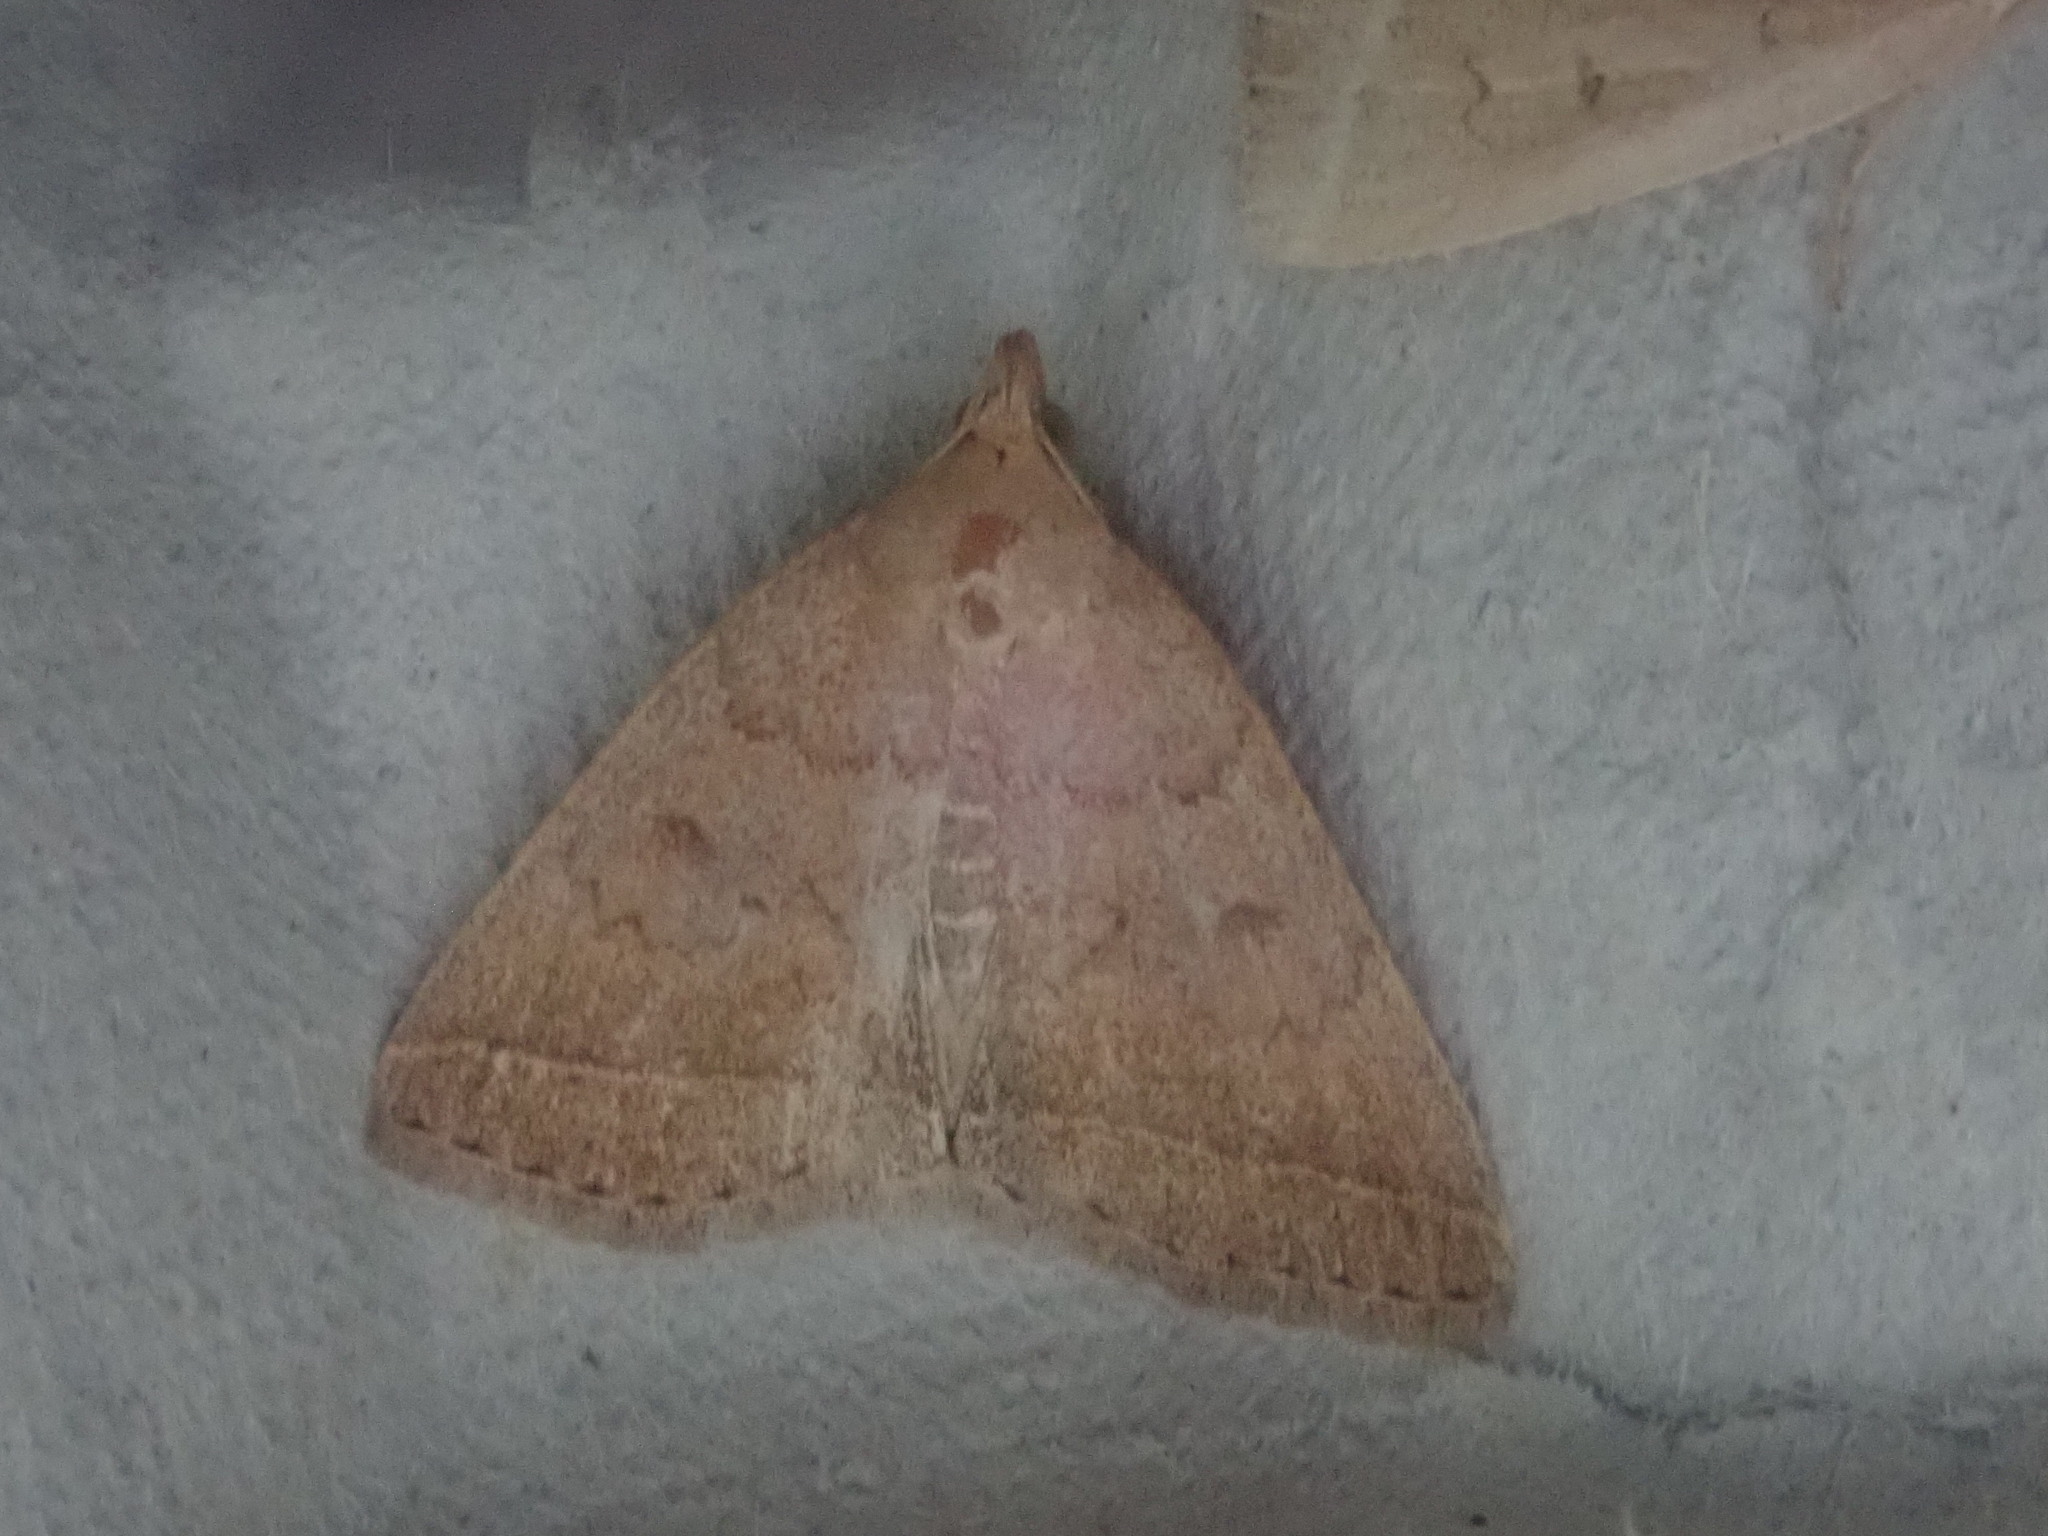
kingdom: Animalia
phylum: Arthropoda
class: Insecta
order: Lepidoptera
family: Erebidae
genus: Zanclognatha
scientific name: Zanclognatha jacchusalis
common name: Yellowish zanclognatha
